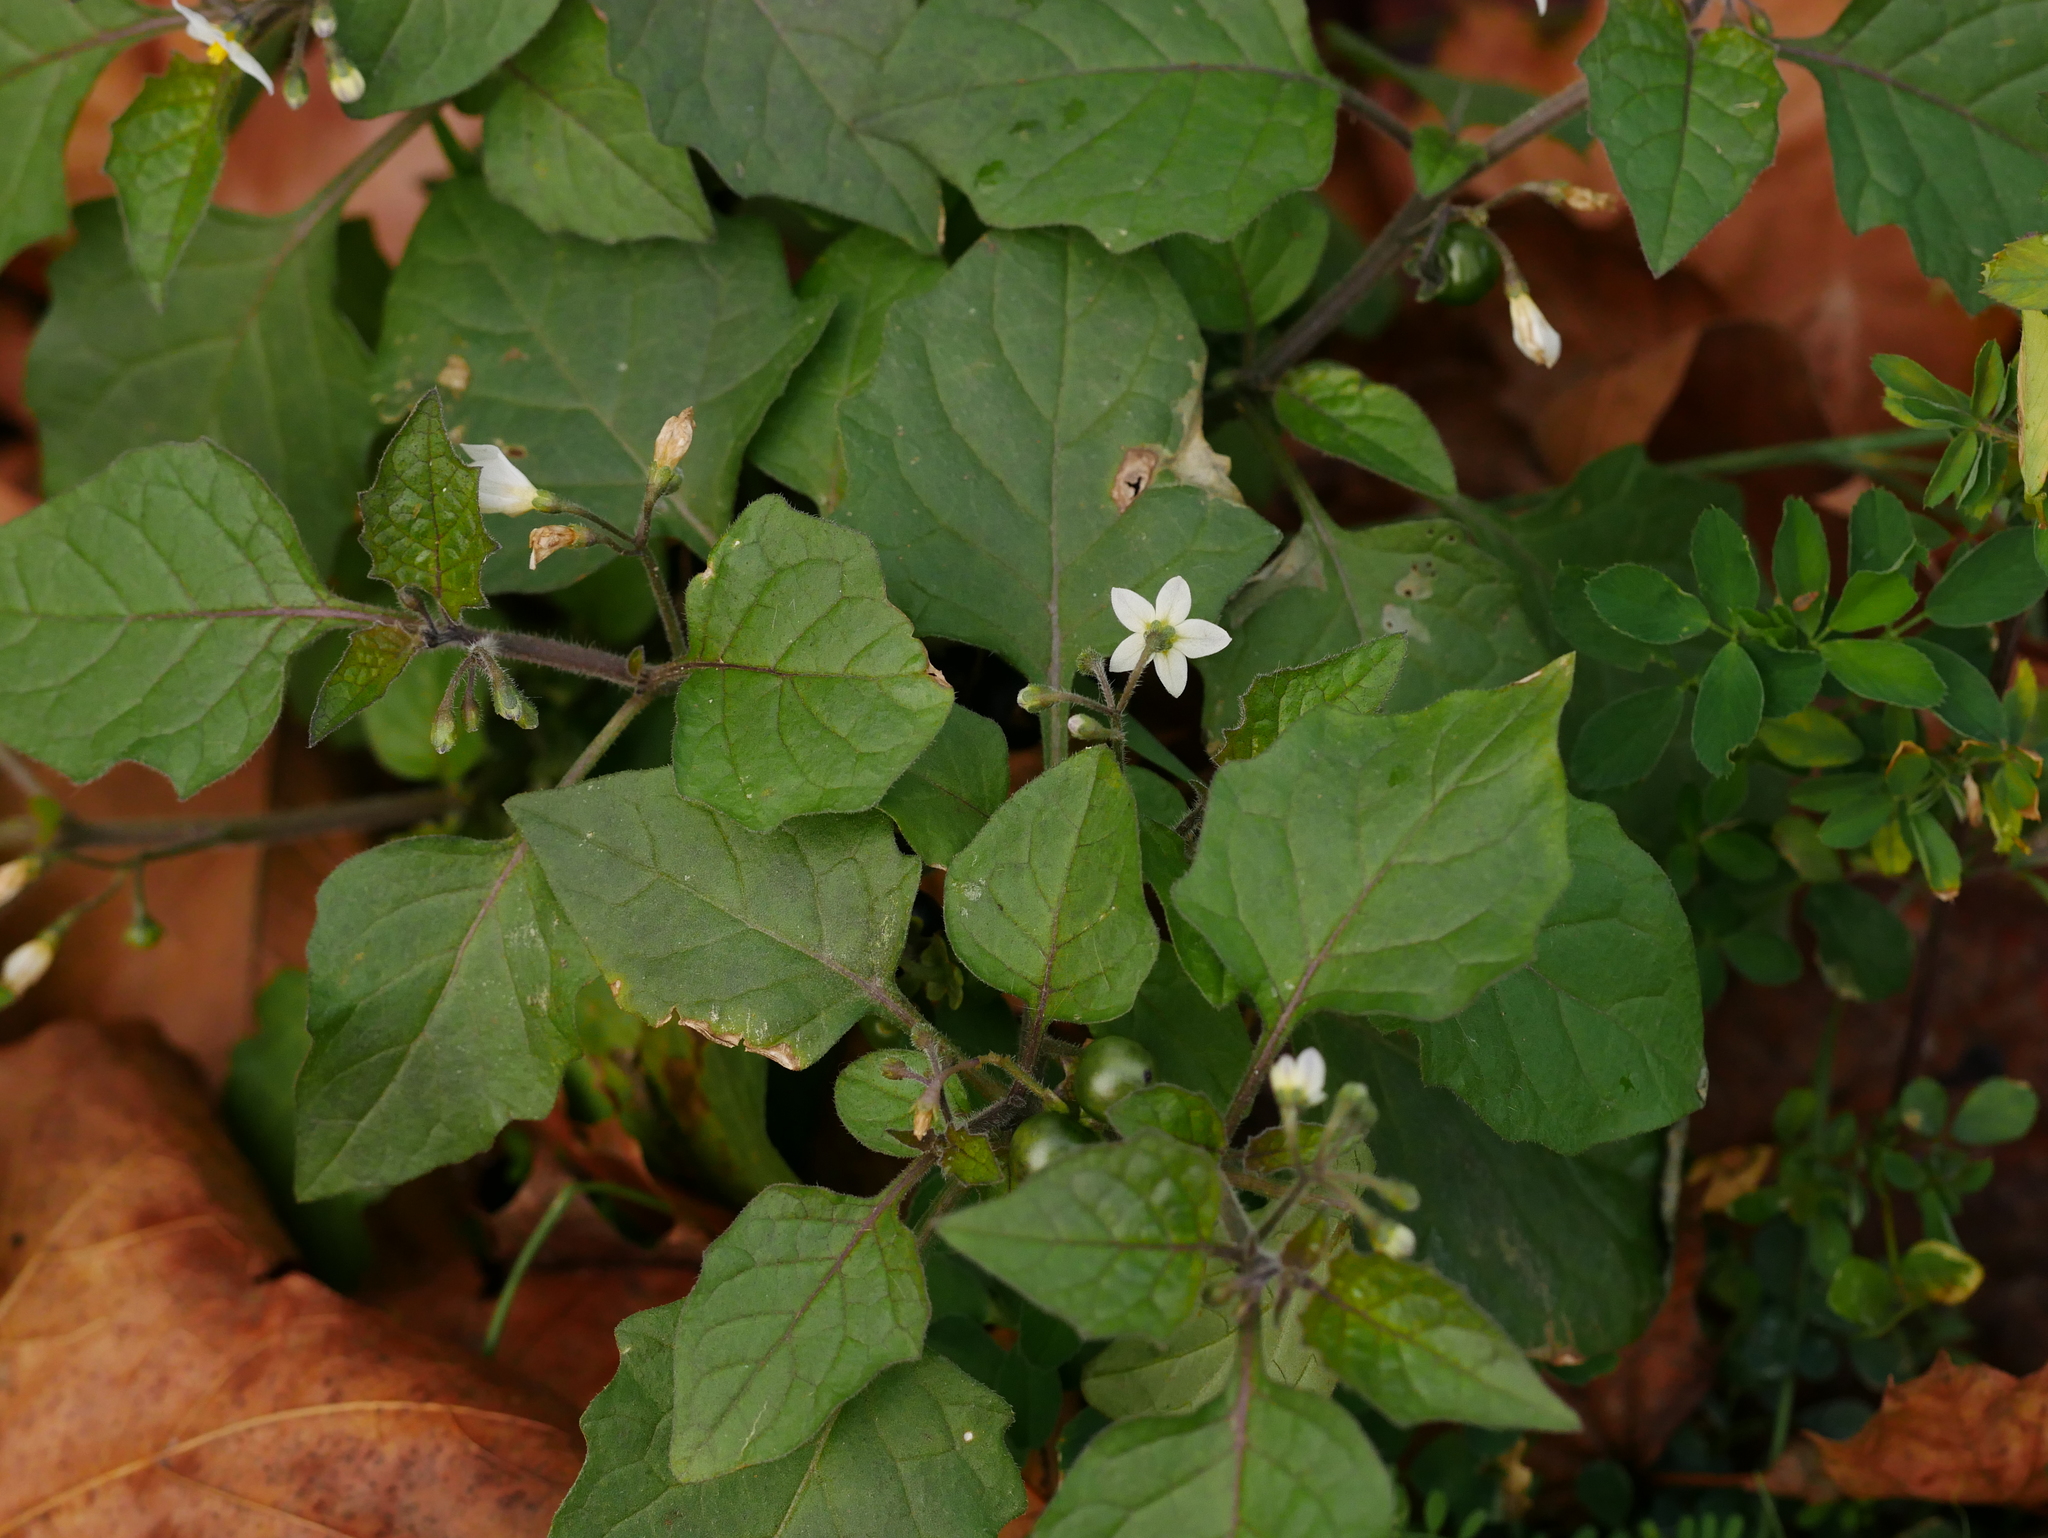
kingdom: Plantae
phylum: Tracheophyta
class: Magnoliopsida
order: Solanales
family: Solanaceae
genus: Solanum
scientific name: Solanum nigrum
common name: Black nightshade
